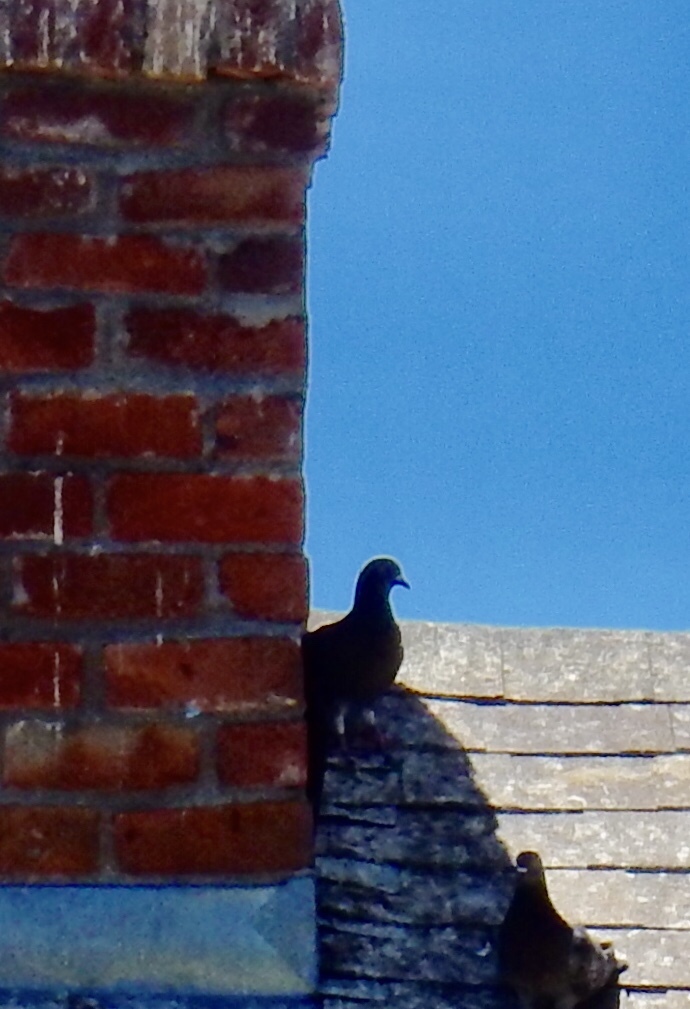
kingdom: Animalia
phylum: Chordata
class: Aves
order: Columbiformes
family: Columbidae
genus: Columba
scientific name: Columba livia
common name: Rock pigeon
